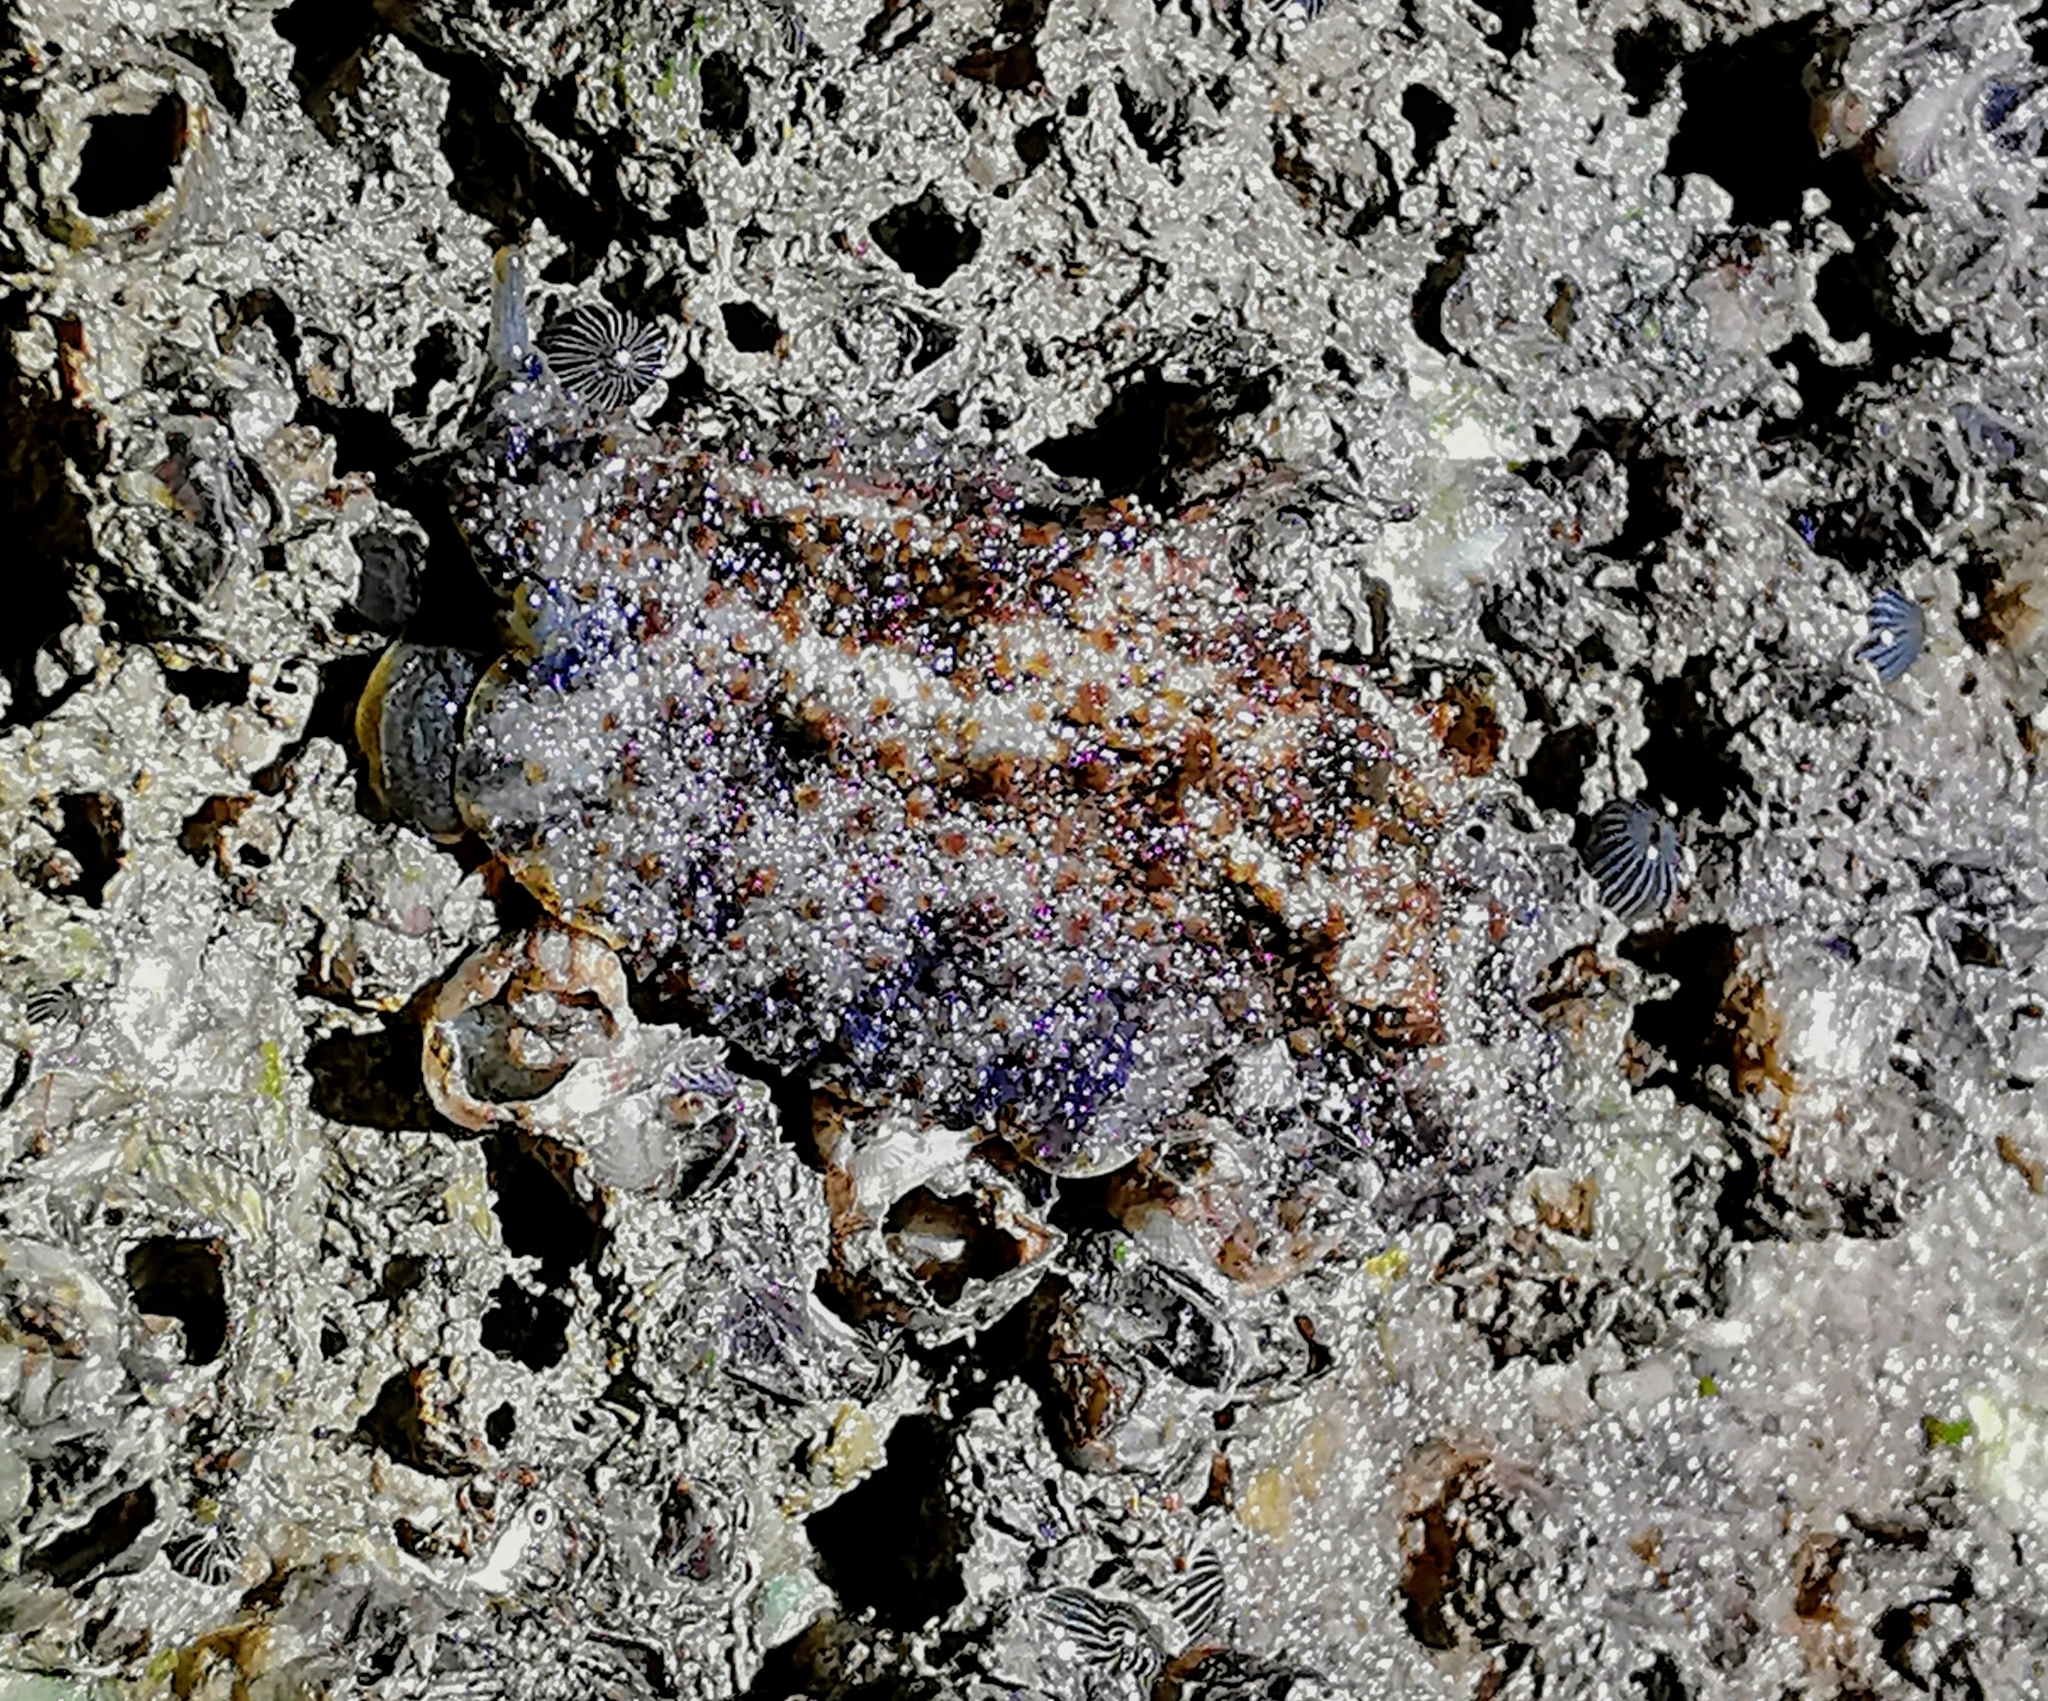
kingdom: Animalia
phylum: Mollusca
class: Gastropoda
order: Systellommatophora
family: Onchidiidae
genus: Peronia
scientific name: Peronia verruculata
